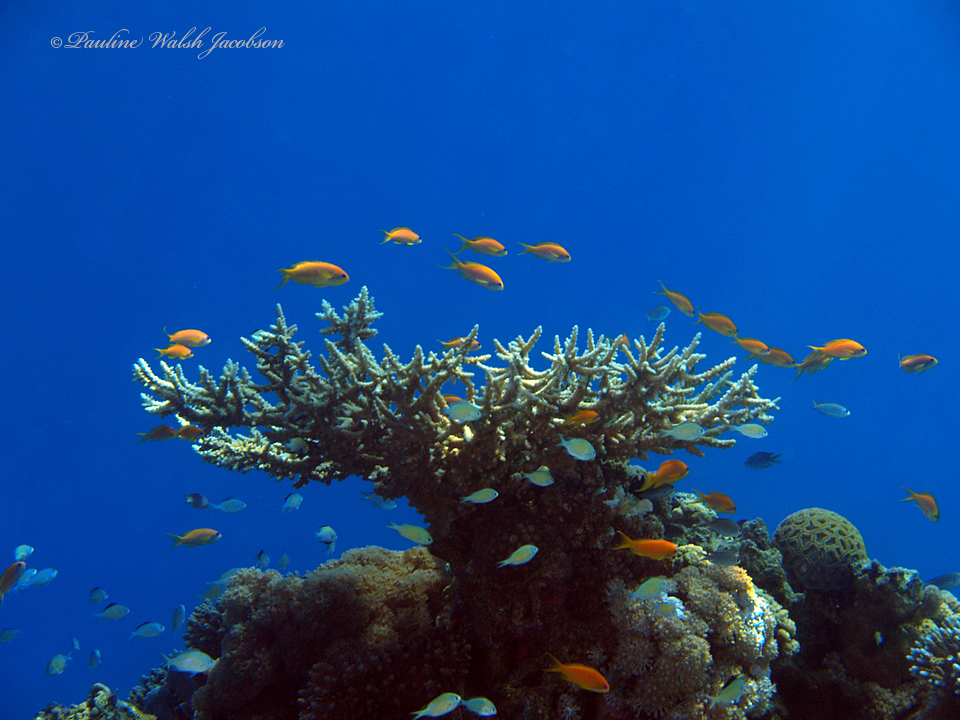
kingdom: Animalia
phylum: Chordata
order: Perciformes
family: Serranidae
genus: Pseudanthias
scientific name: Pseudanthias squamipinnis
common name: Scalefin anthias
